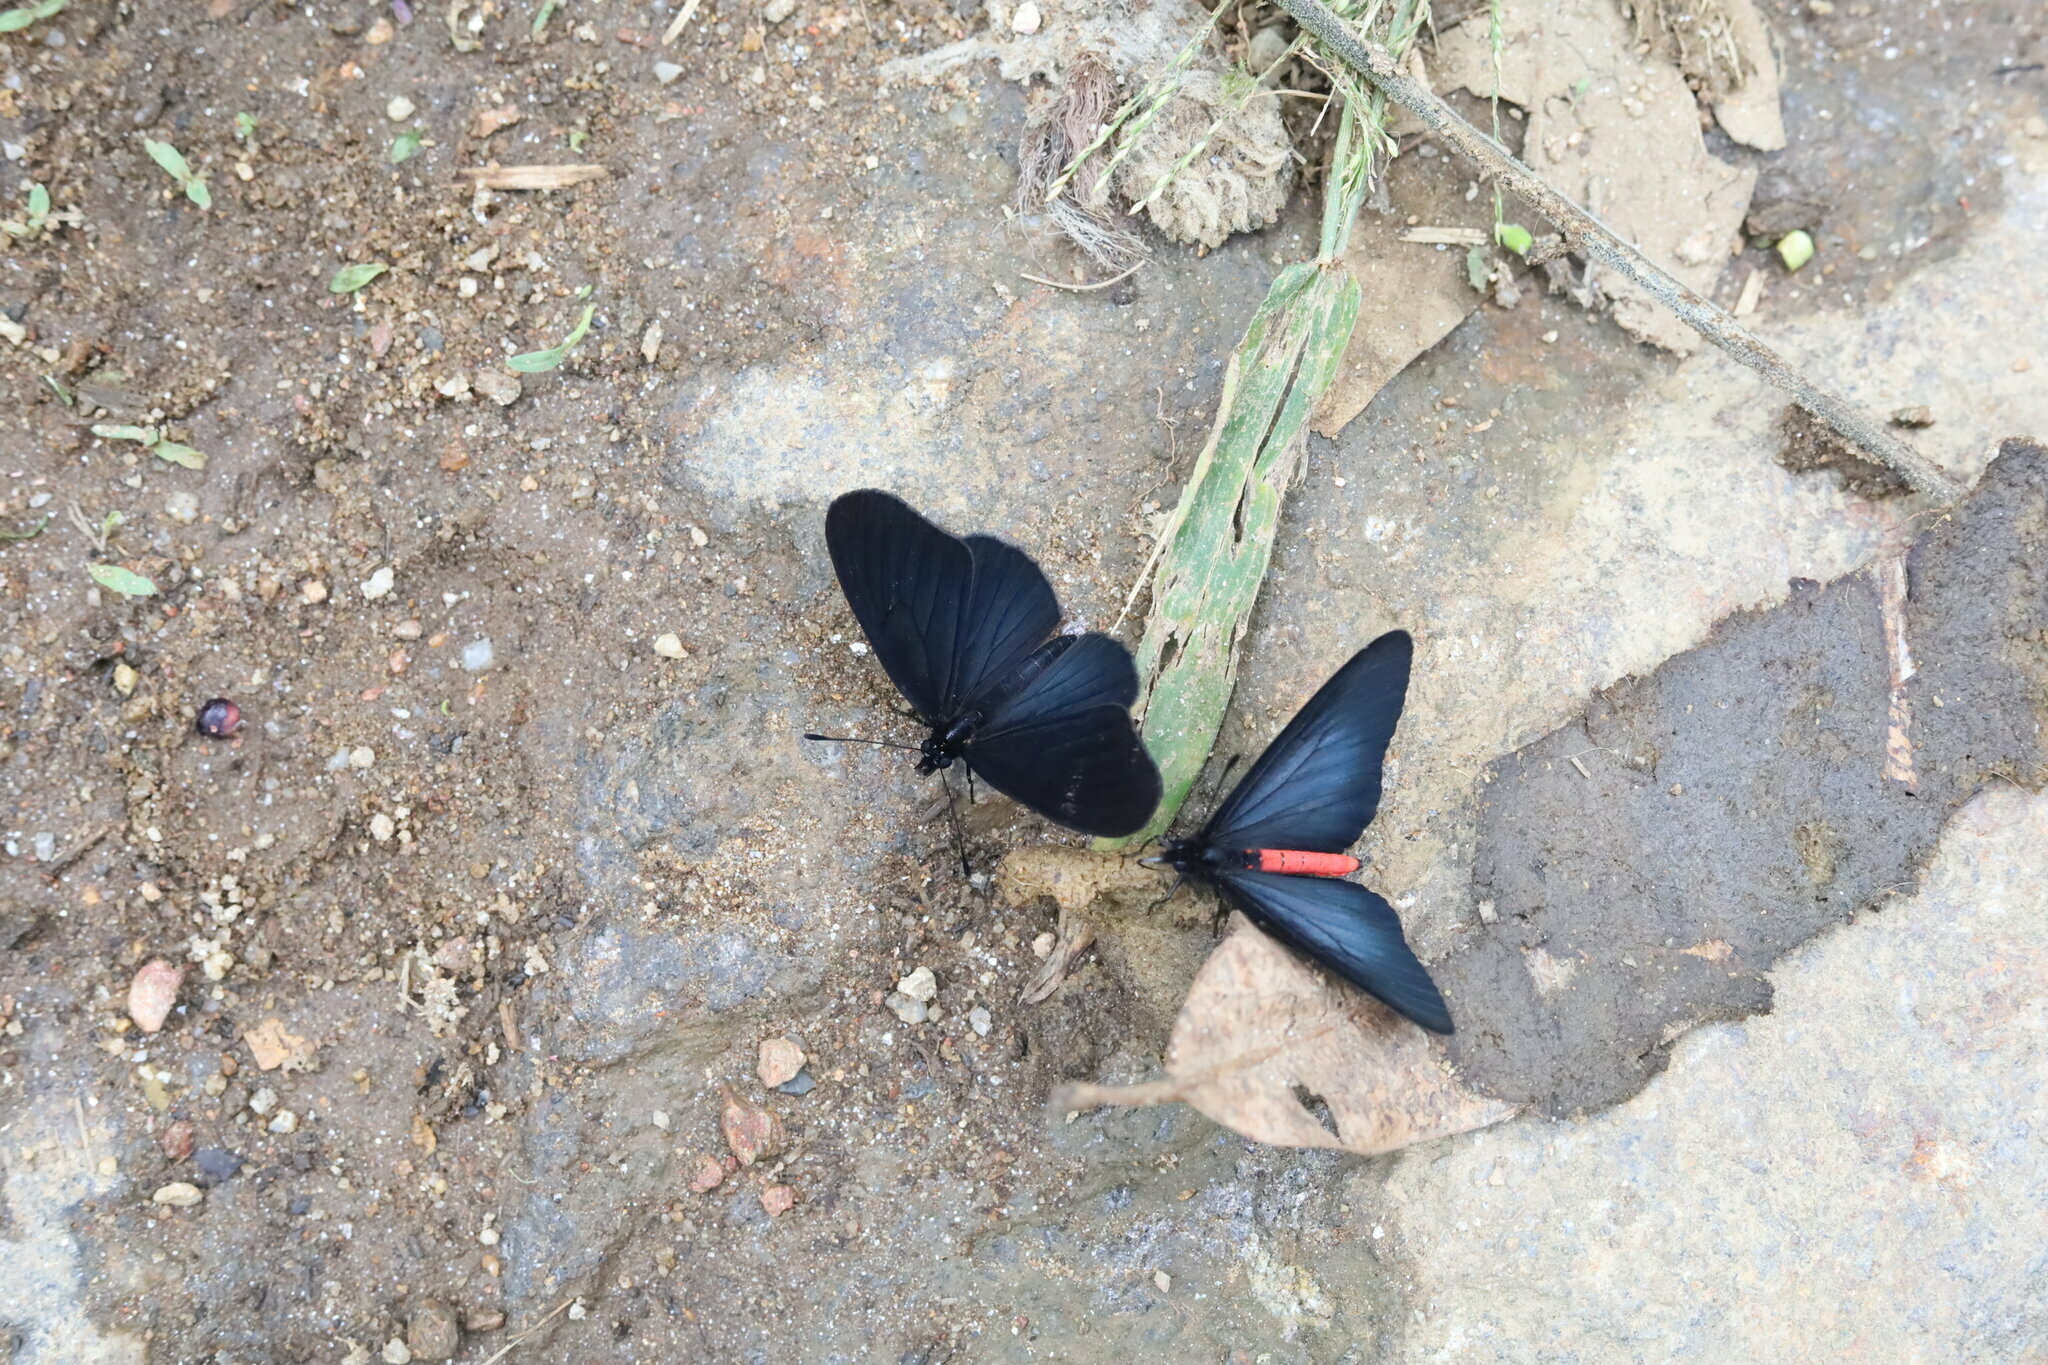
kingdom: Animalia
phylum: Arthropoda
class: Insecta
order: Lepidoptera
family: Nymphalidae
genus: Actinote
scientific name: Actinote neleus
